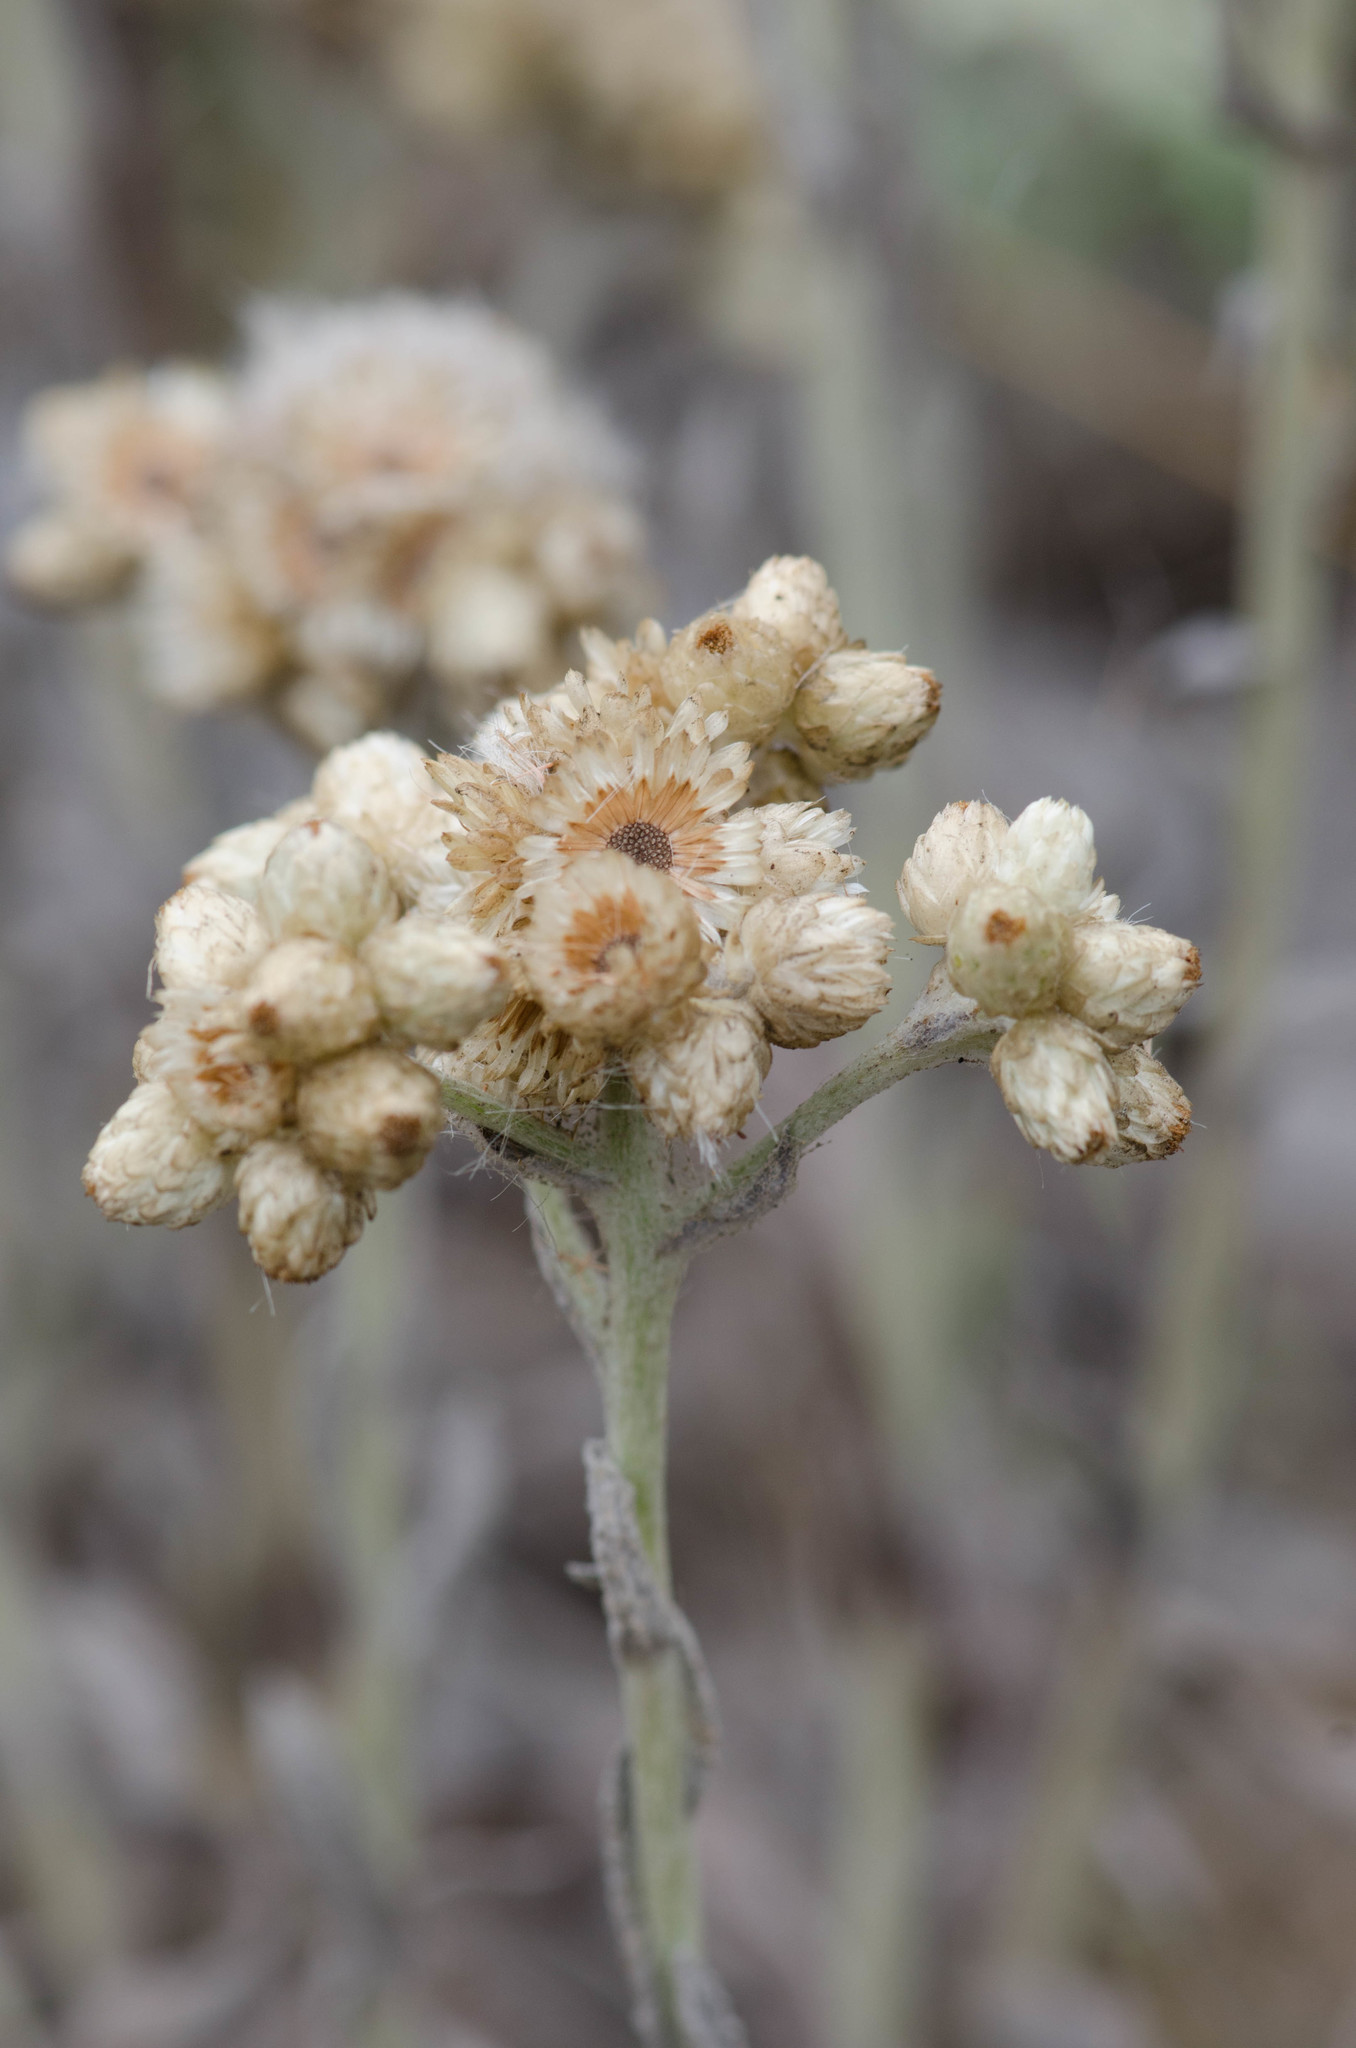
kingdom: Plantae
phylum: Tracheophyta
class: Magnoliopsida
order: Asterales
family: Asteraceae
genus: Anaphalis
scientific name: Anaphalis margaritacea
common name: Pearly everlasting
